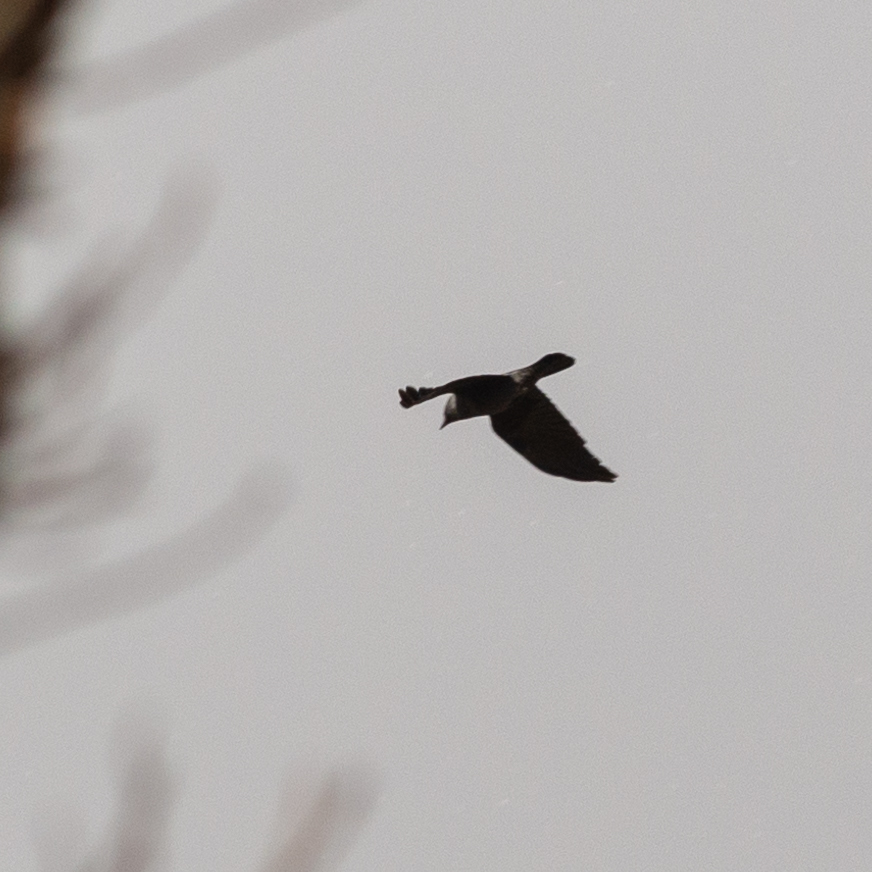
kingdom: Animalia
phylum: Chordata
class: Aves
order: Passeriformes
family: Corvidae
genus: Coloeus
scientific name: Coloeus monedula
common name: Western jackdaw
